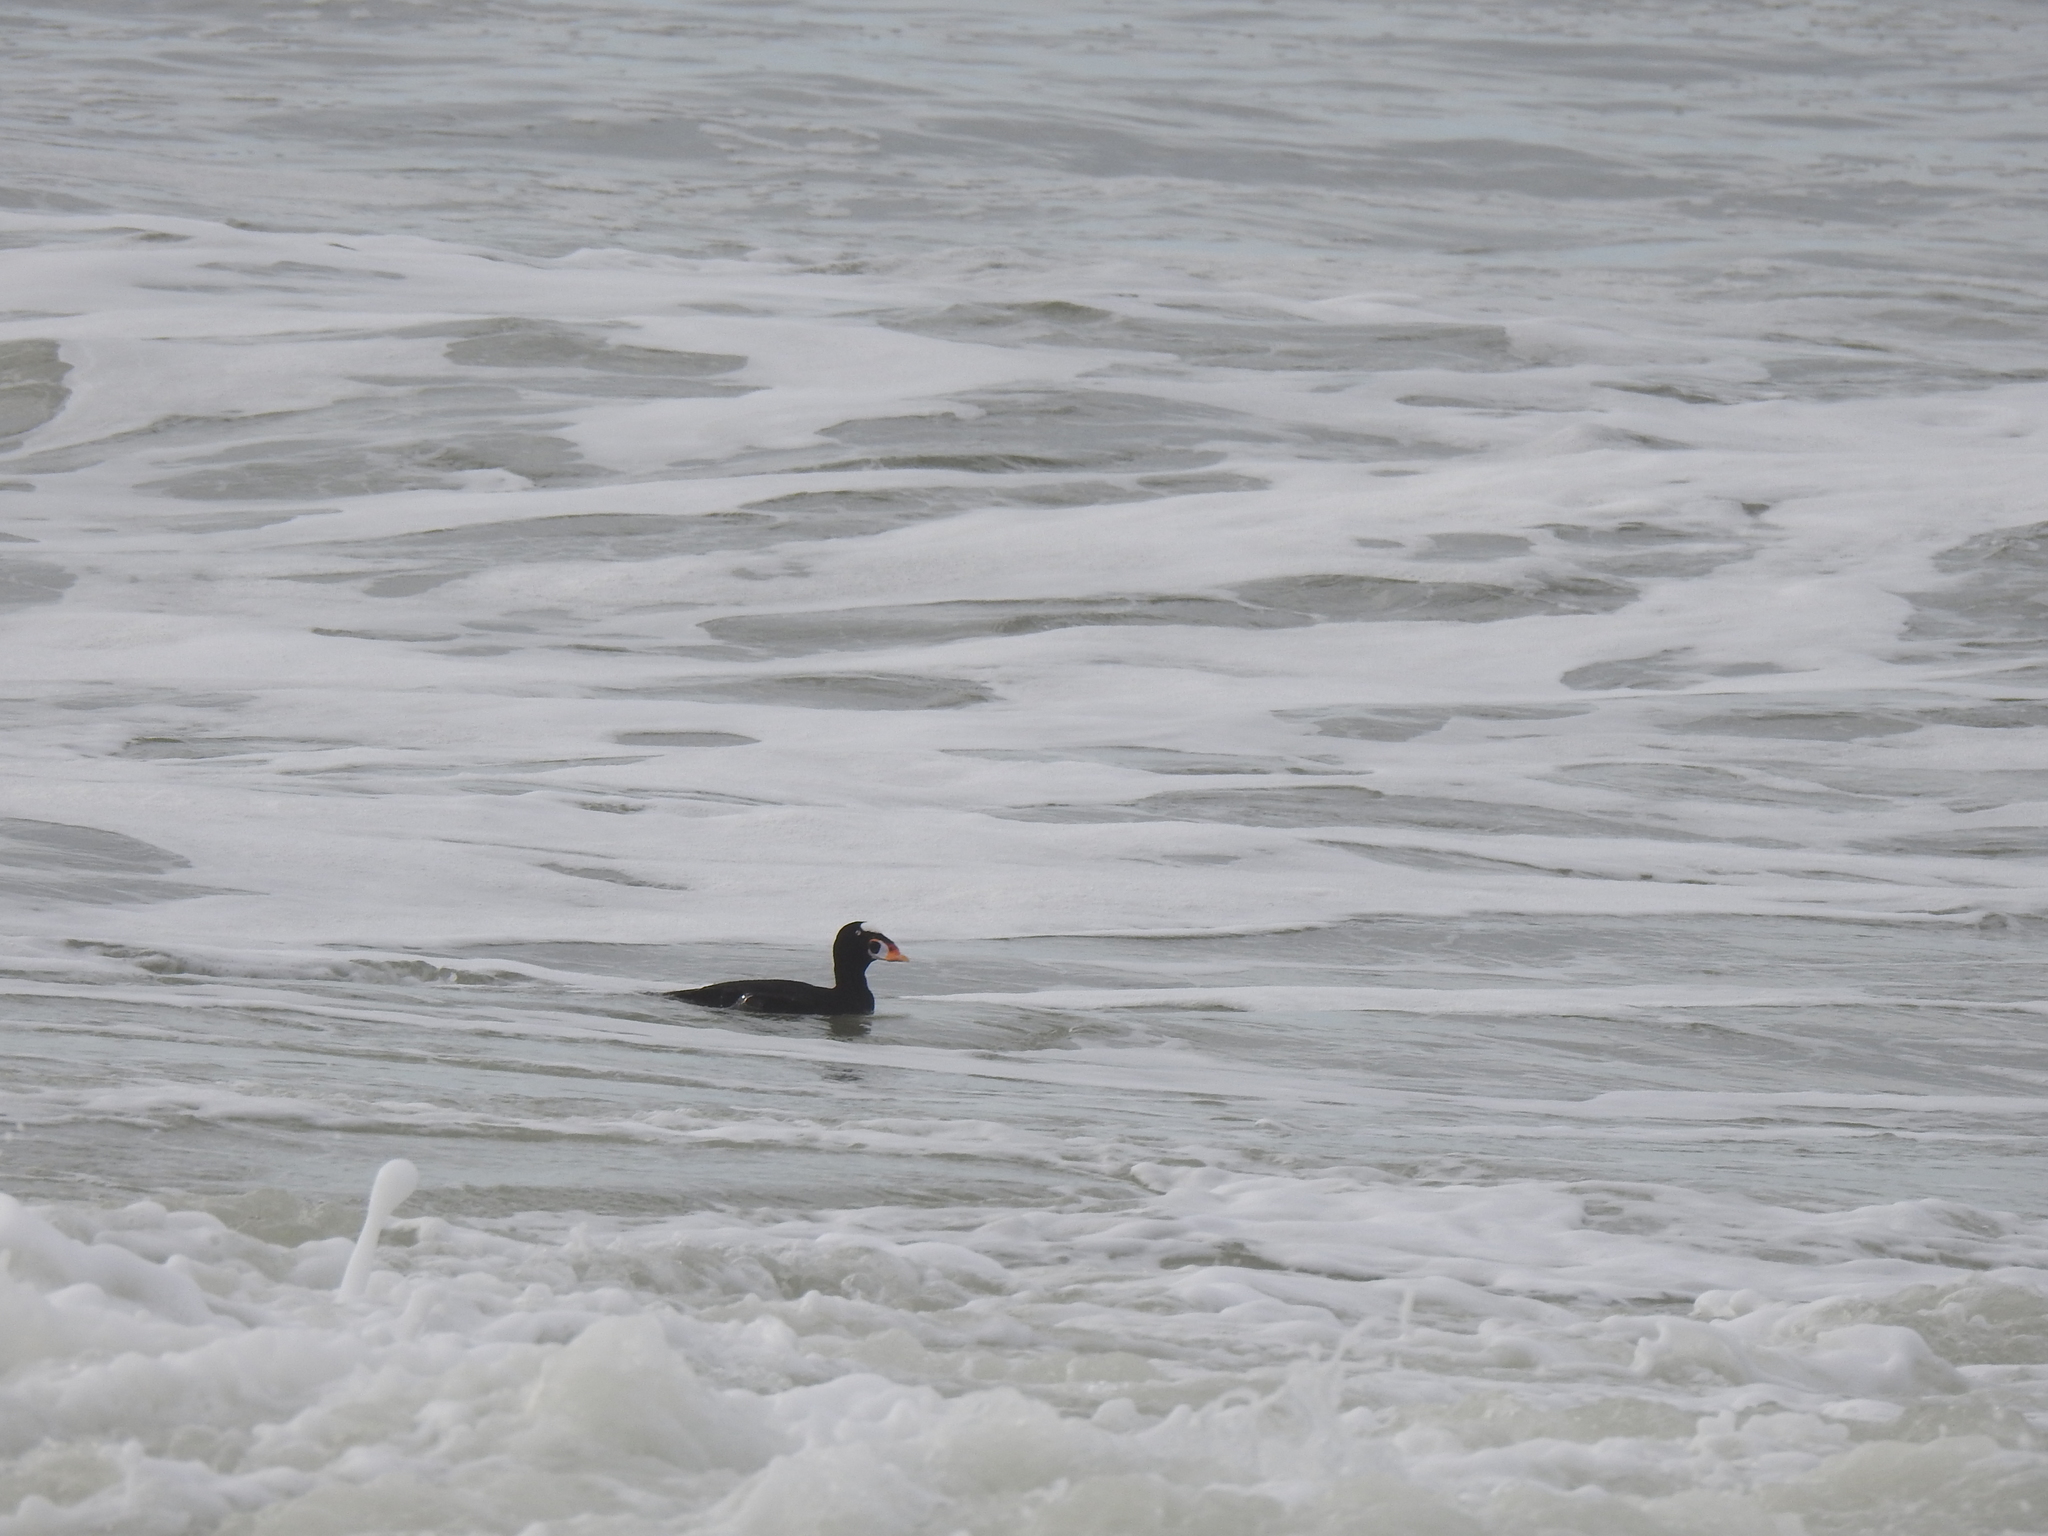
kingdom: Animalia
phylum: Chordata
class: Aves
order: Anseriformes
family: Anatidae
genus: Melanitta
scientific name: Melanitta perspicillata
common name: Surf scoter
